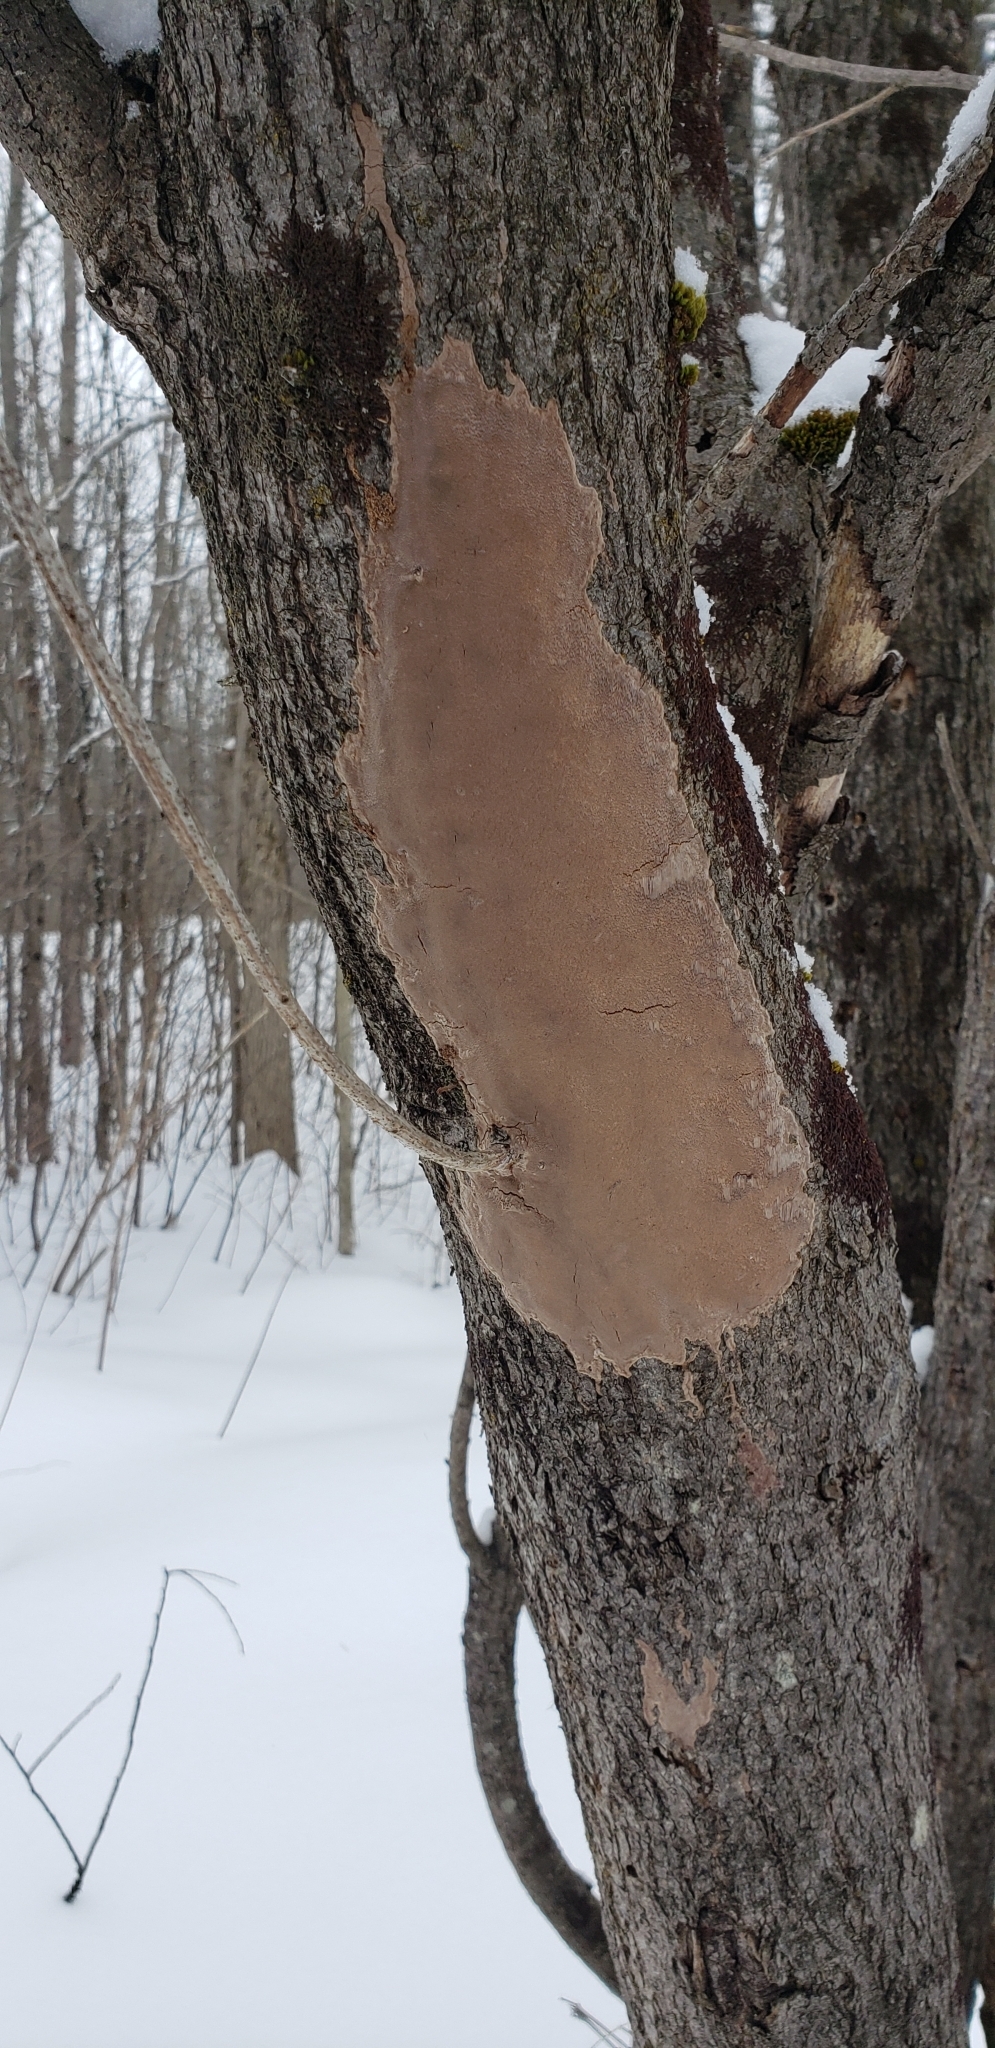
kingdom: Fungi
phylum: Basidiomycota
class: Agaricomycetes
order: Hymenochaetales
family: Hymenochaetaceae
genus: Fomitiporia
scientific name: Fomitiporia punctata
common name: Elbowpatch crust
